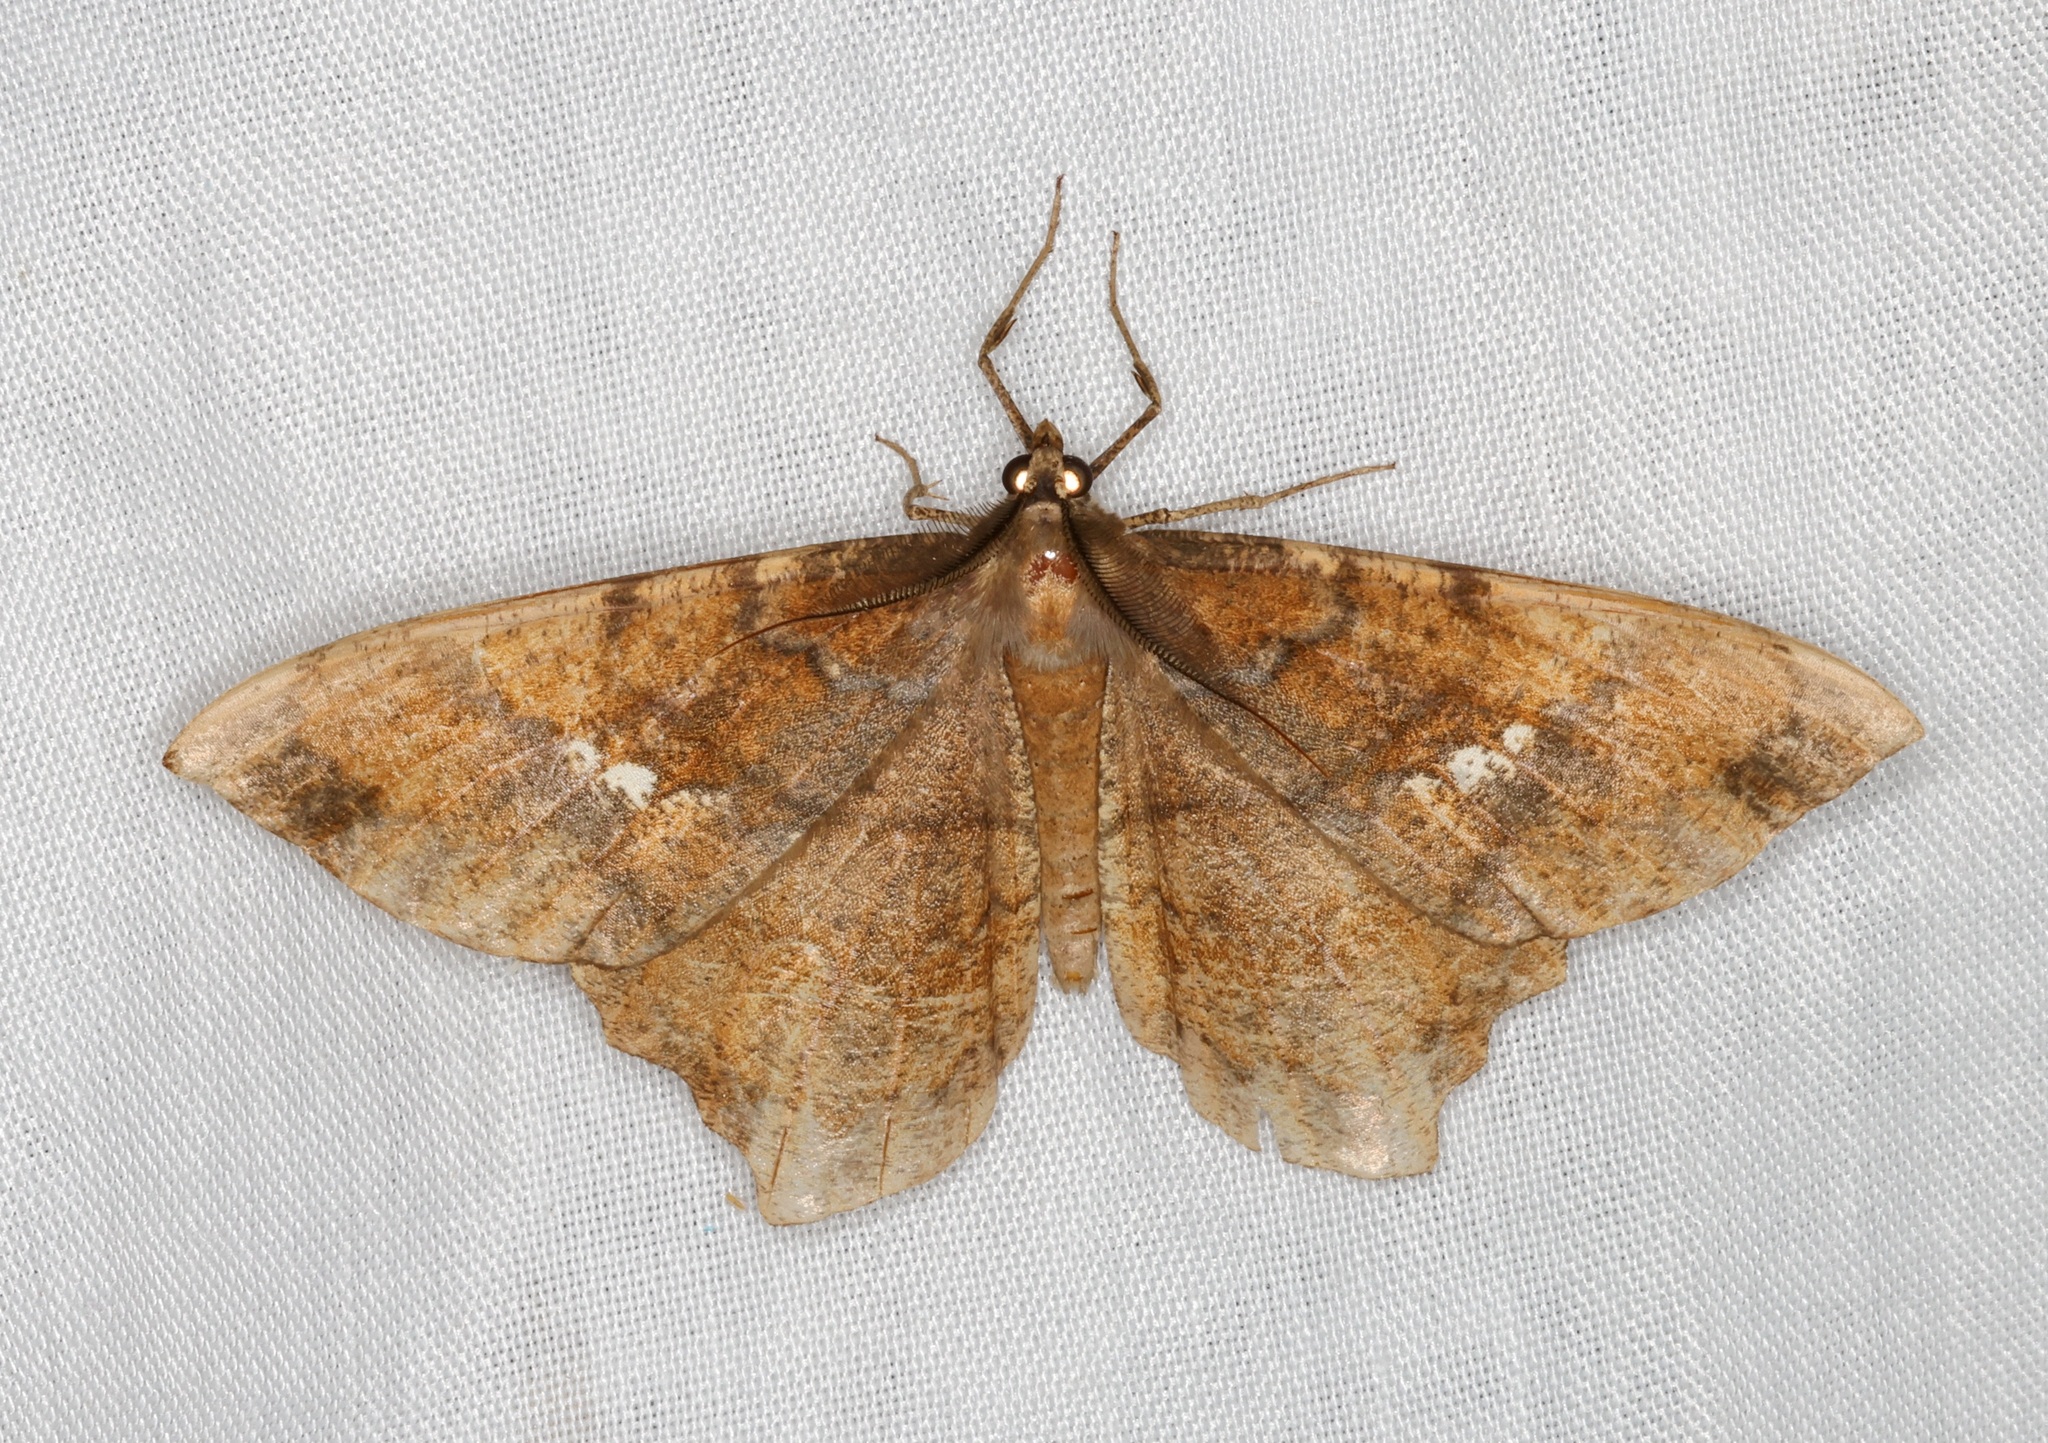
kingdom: Animalia
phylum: Arthropoda
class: Insecta
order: Lepidoptera
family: Geometridae
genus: Amblychia
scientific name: Amblychia angeronaria
